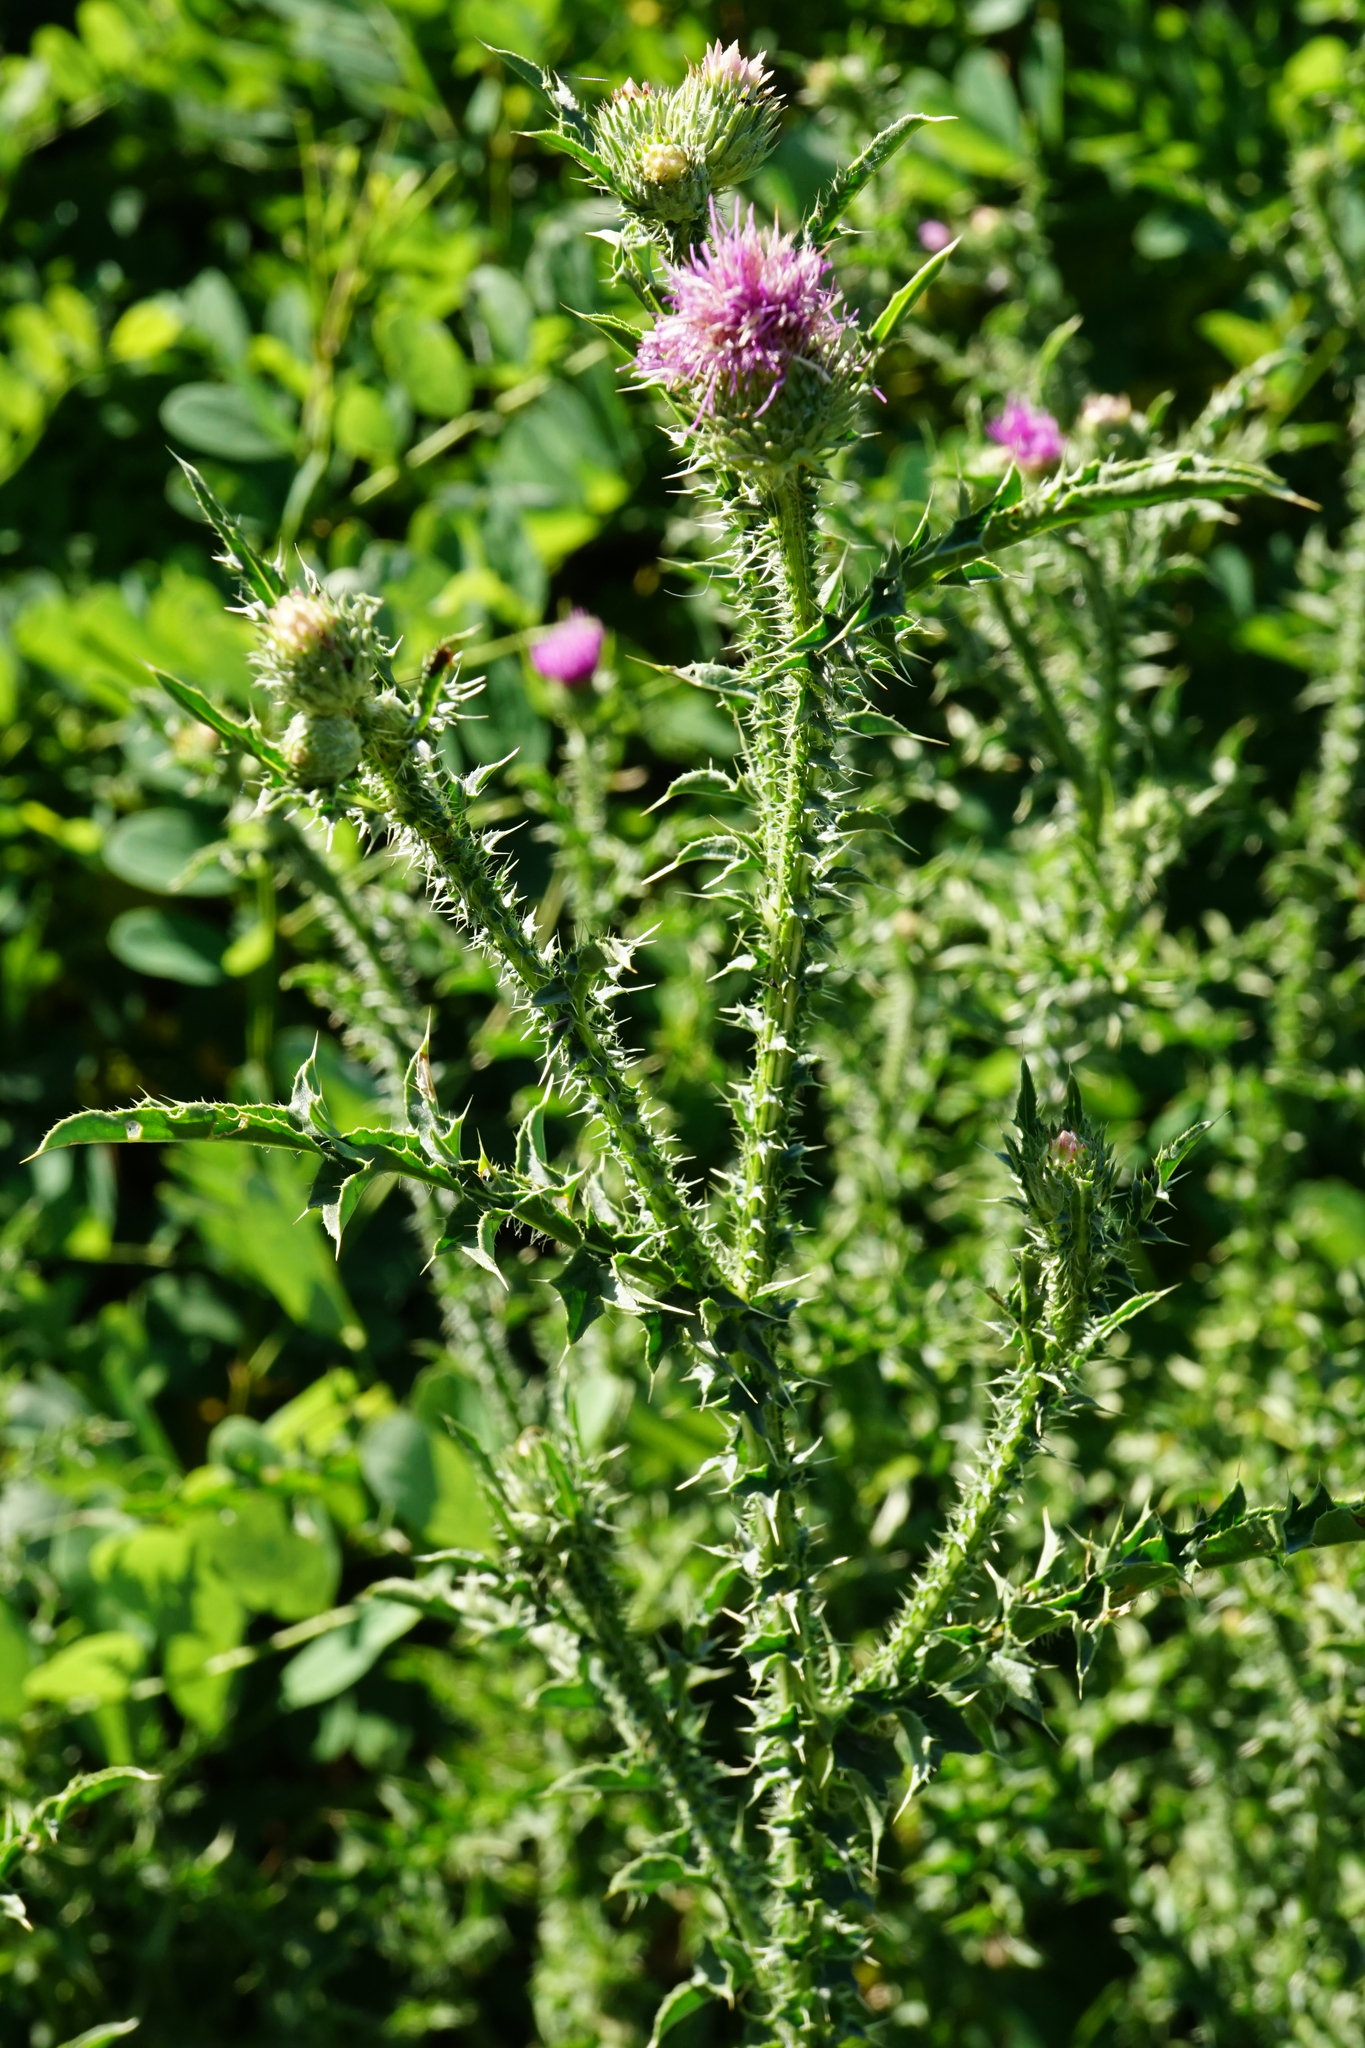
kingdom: Plantae
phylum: Tracheophyta
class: Magnoliopsida
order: Asterales
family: Asteraceae
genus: Carduus
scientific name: Carduus acanthoides
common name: Plumeless thistle
